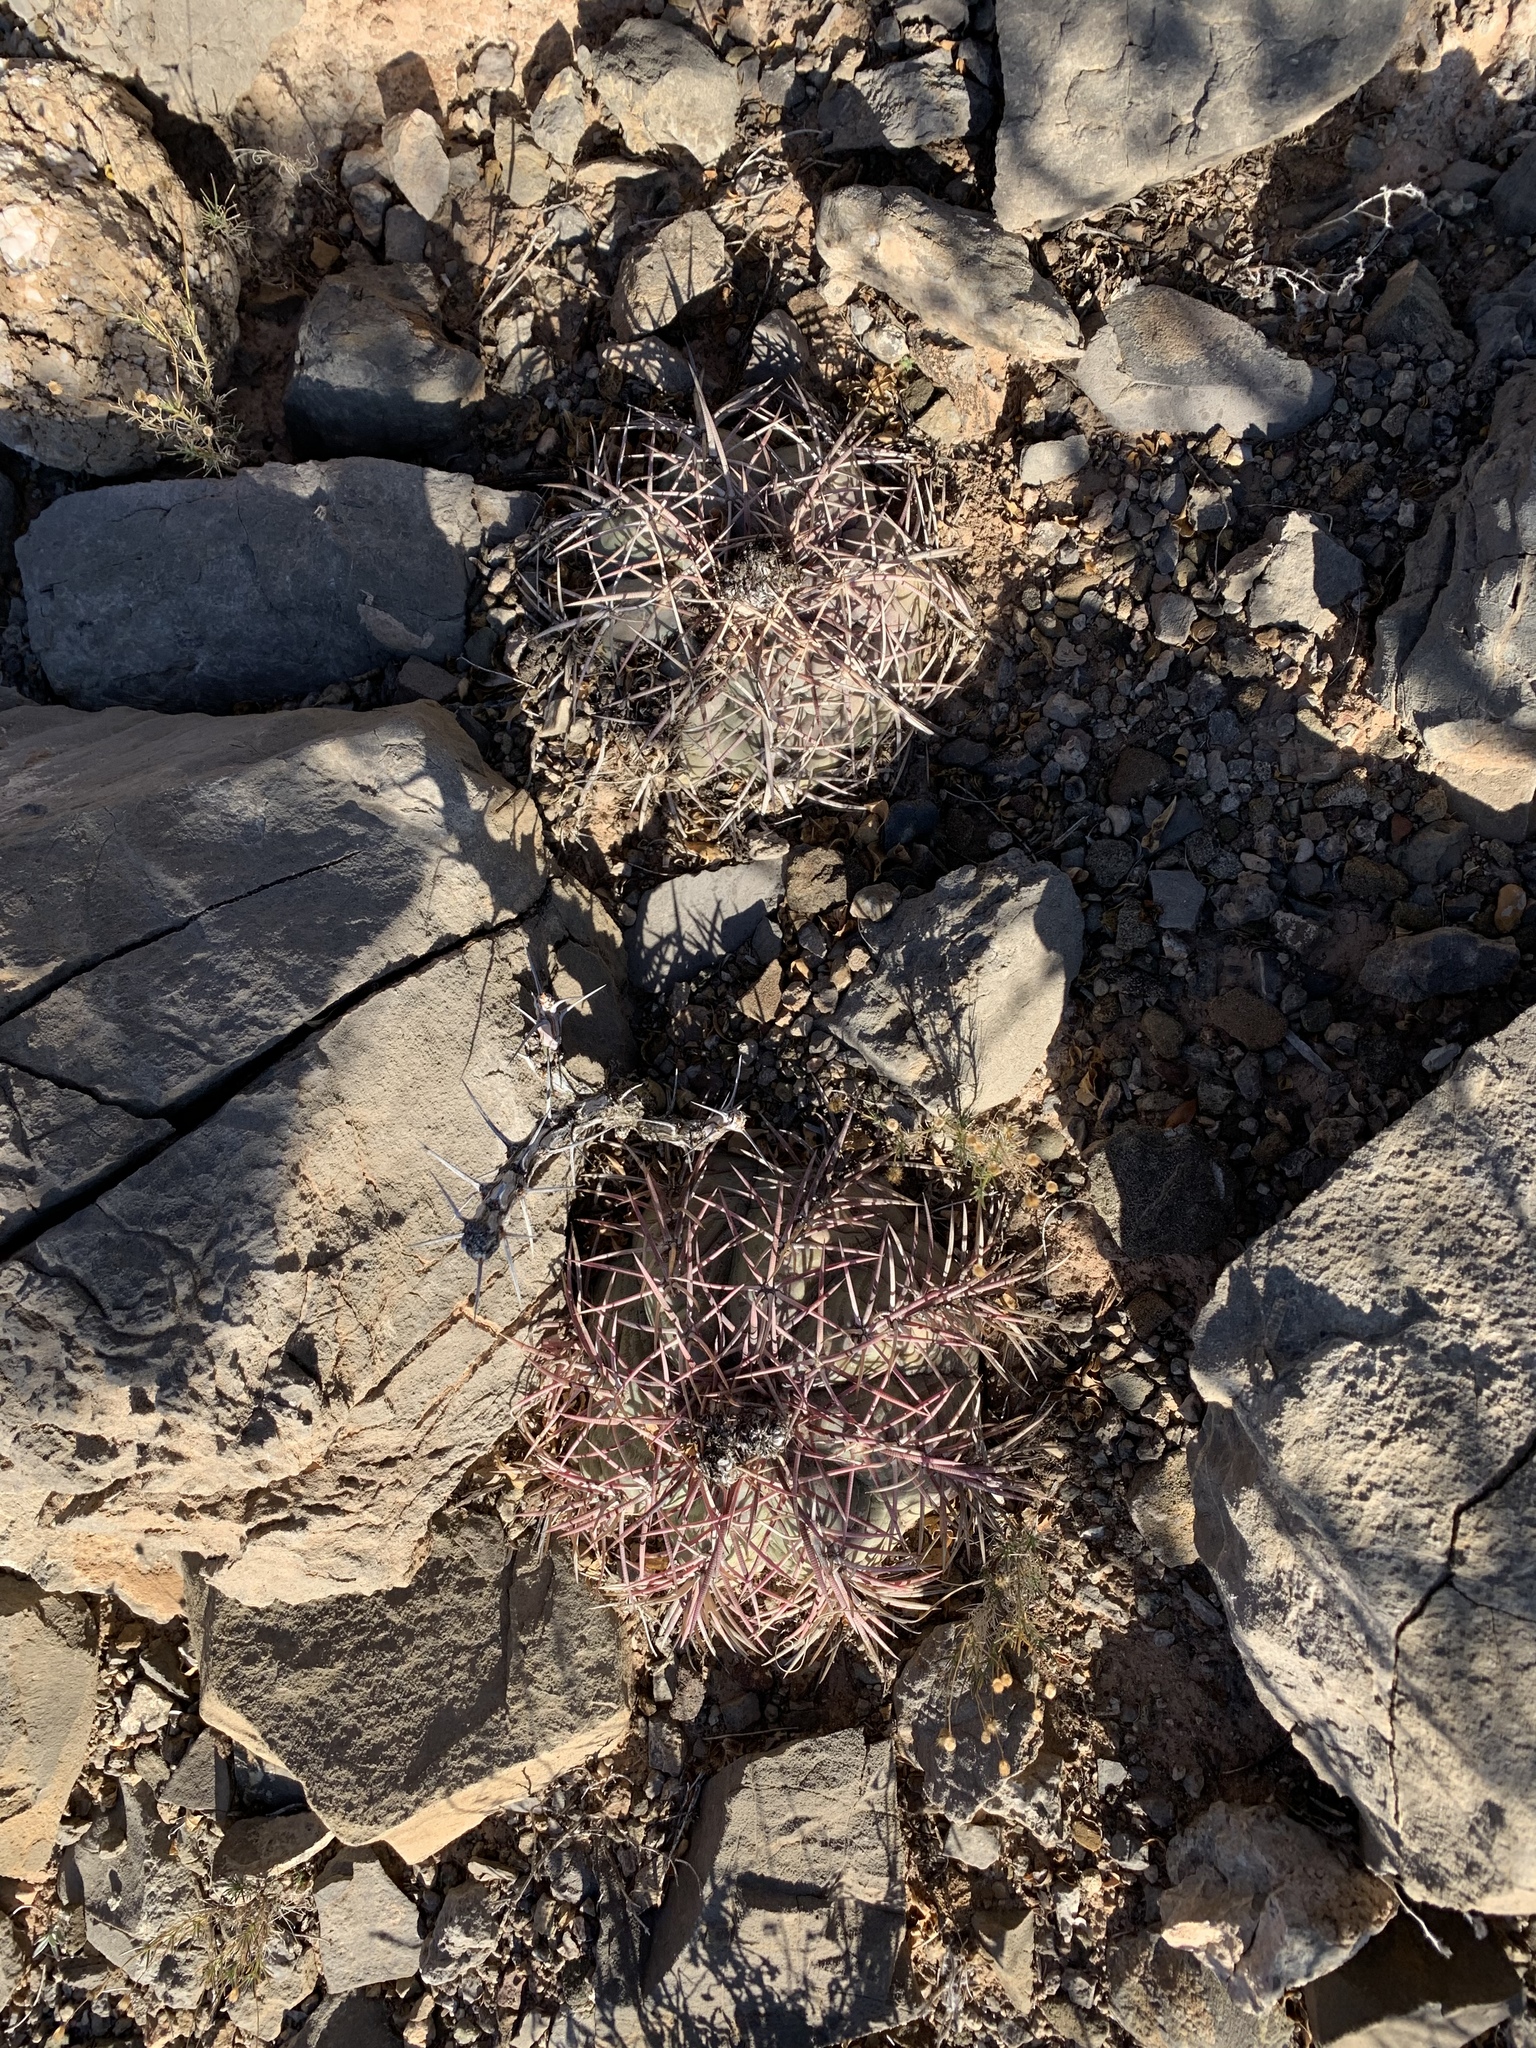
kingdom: Plantae
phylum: Tracheophyta
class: Magnoliopsida
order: Caryophyllales
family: Cactaceae
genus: Echinocactus
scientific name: Echinocactus horizonthalonius
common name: Devilshead
